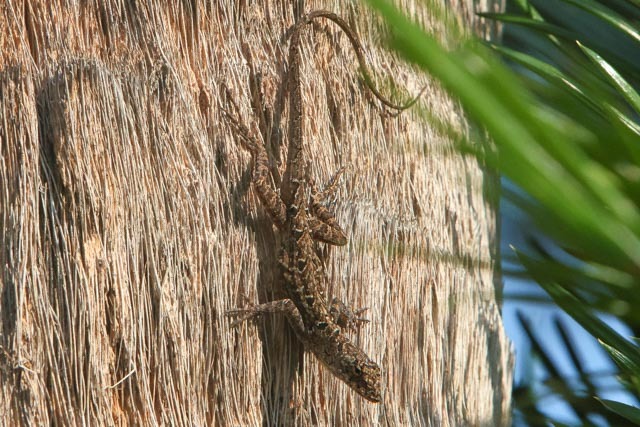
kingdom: Animalia
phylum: Chordata
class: Squamata
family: Dactyloidae
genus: Anolis
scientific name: Anolis sagrei
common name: Brown anole
